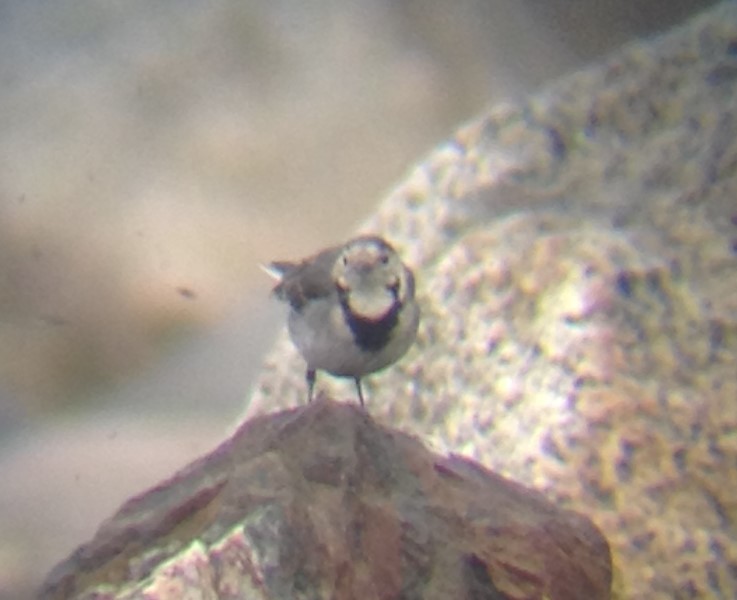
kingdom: Animalia
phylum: Chordata
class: Aves
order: Passeriformes
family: Motacillidae
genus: Motacilla
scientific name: Motacilla alba
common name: White wagtail
